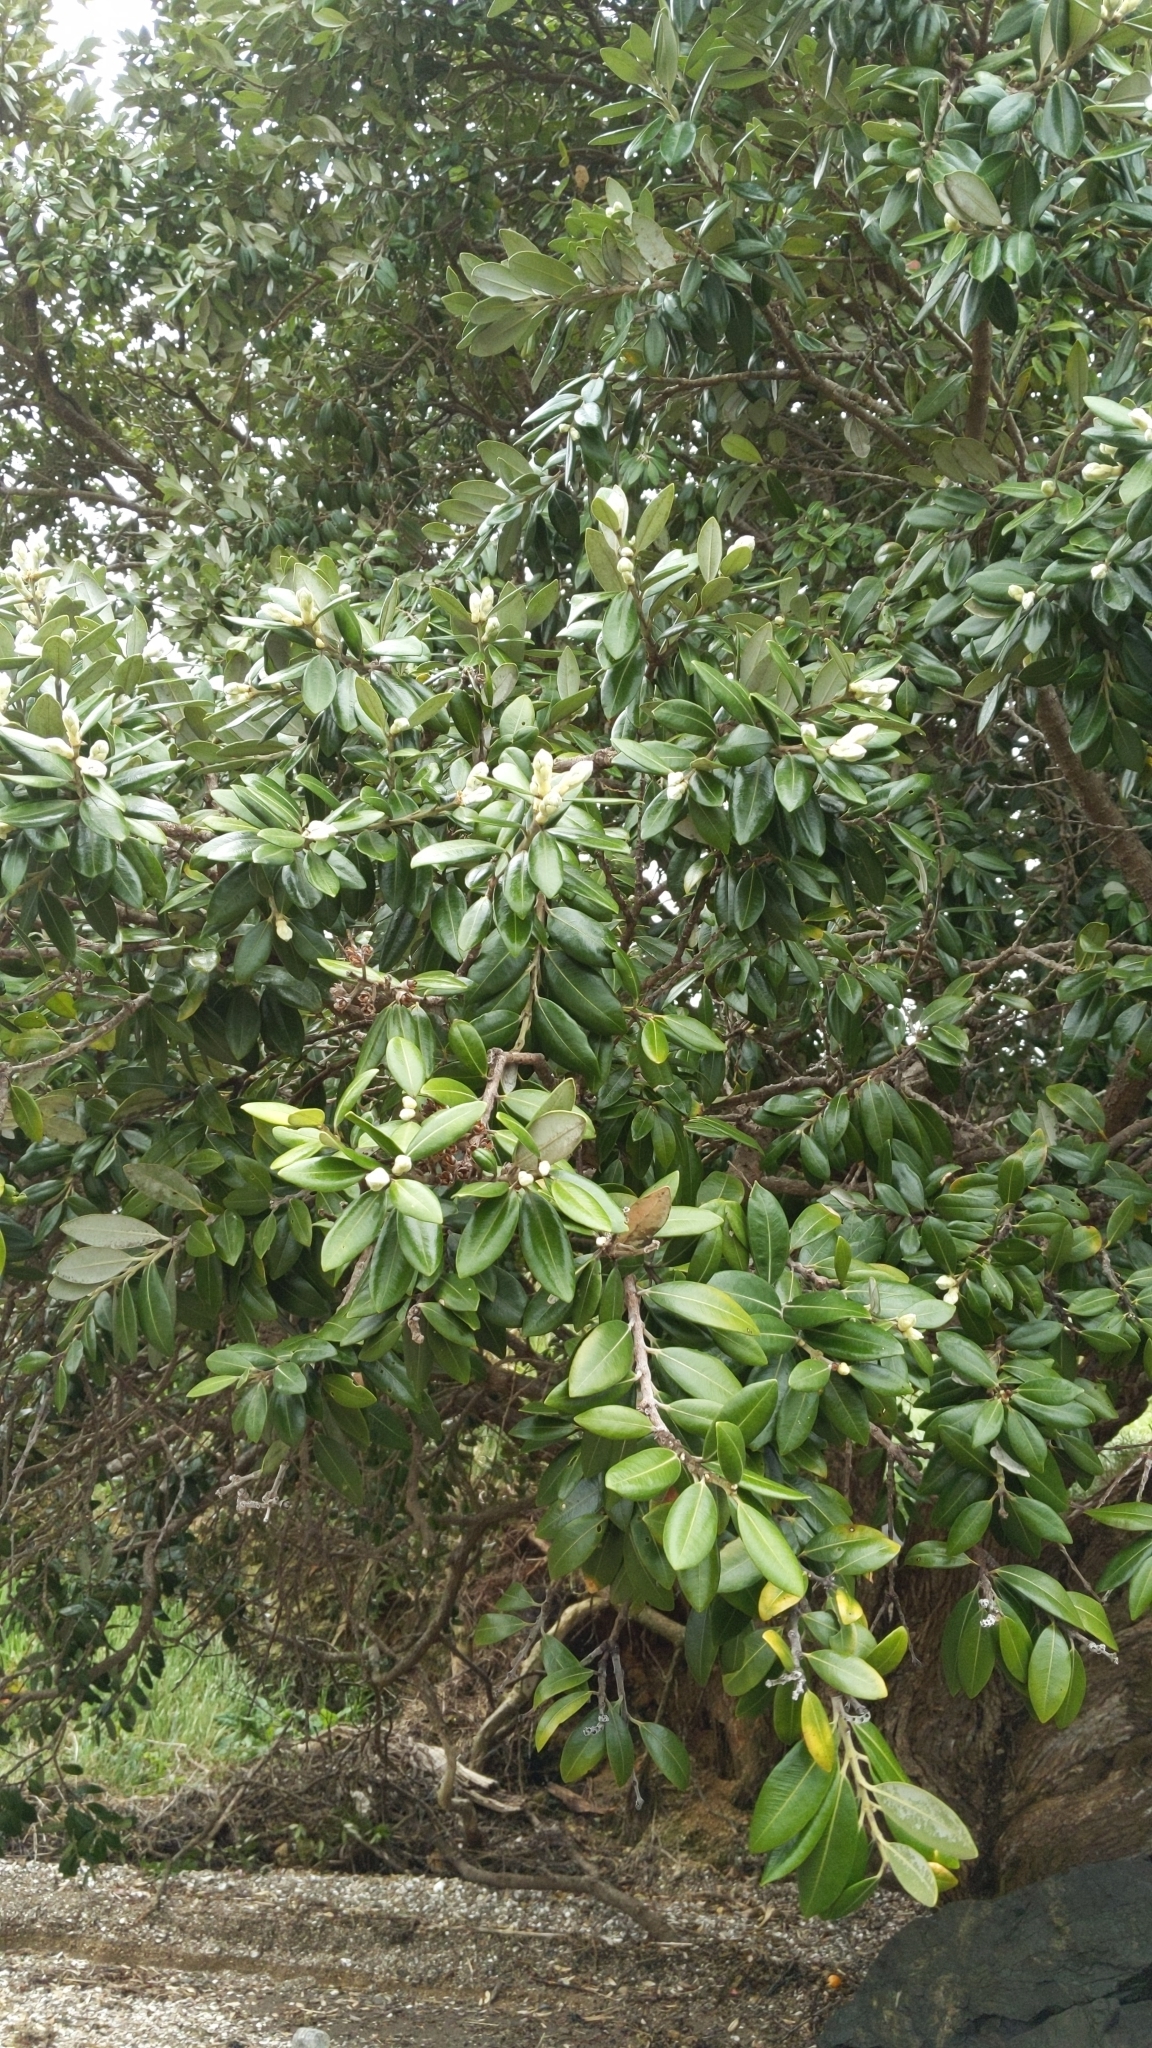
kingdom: Plantae
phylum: Tracheophyta
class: Magnoliopsida
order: Myrtales
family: Myrtaceae
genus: Metrosideros
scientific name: Metrosideros excelsa
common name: New zealand christmastree
